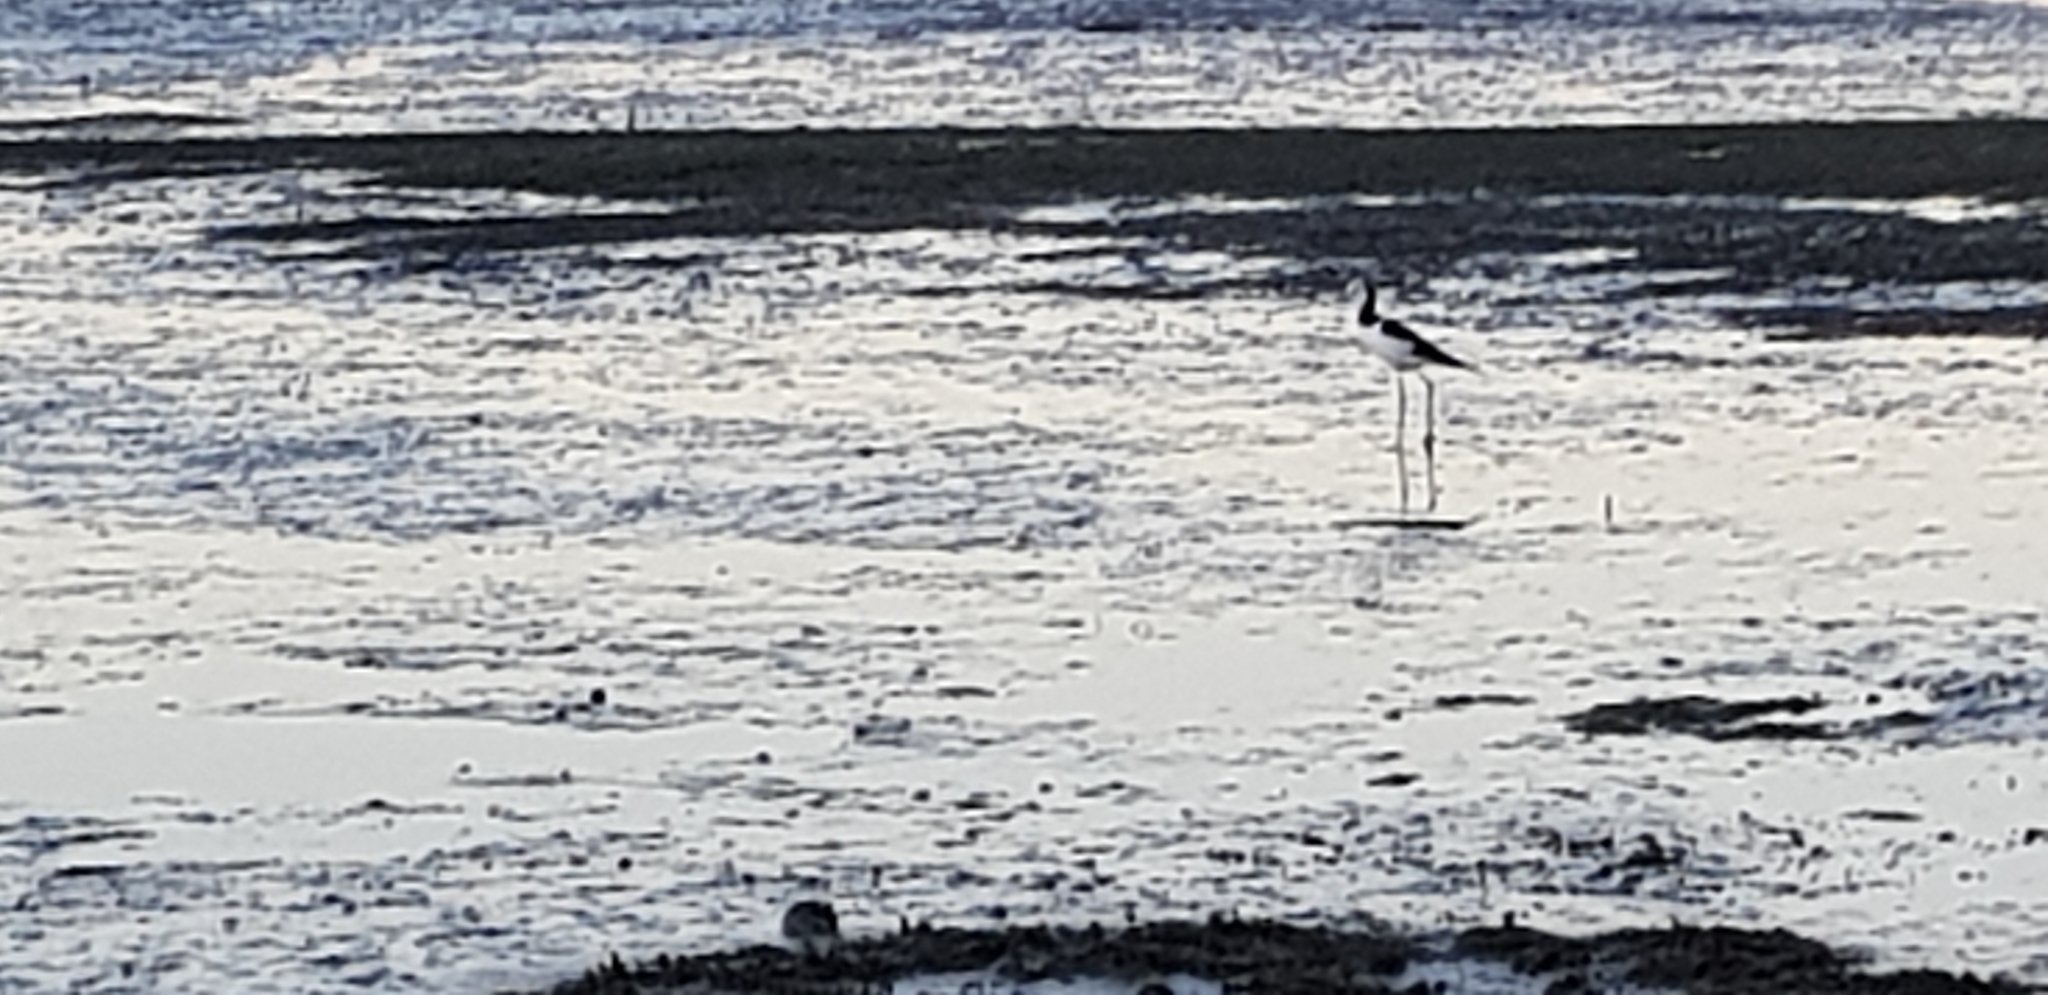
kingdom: Animalia
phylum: Chordata
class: Aves
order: Charadriiformes
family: Recurvirostridae
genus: Himantopus
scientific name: Himantopus leucocephalus
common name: White-headed stilt
